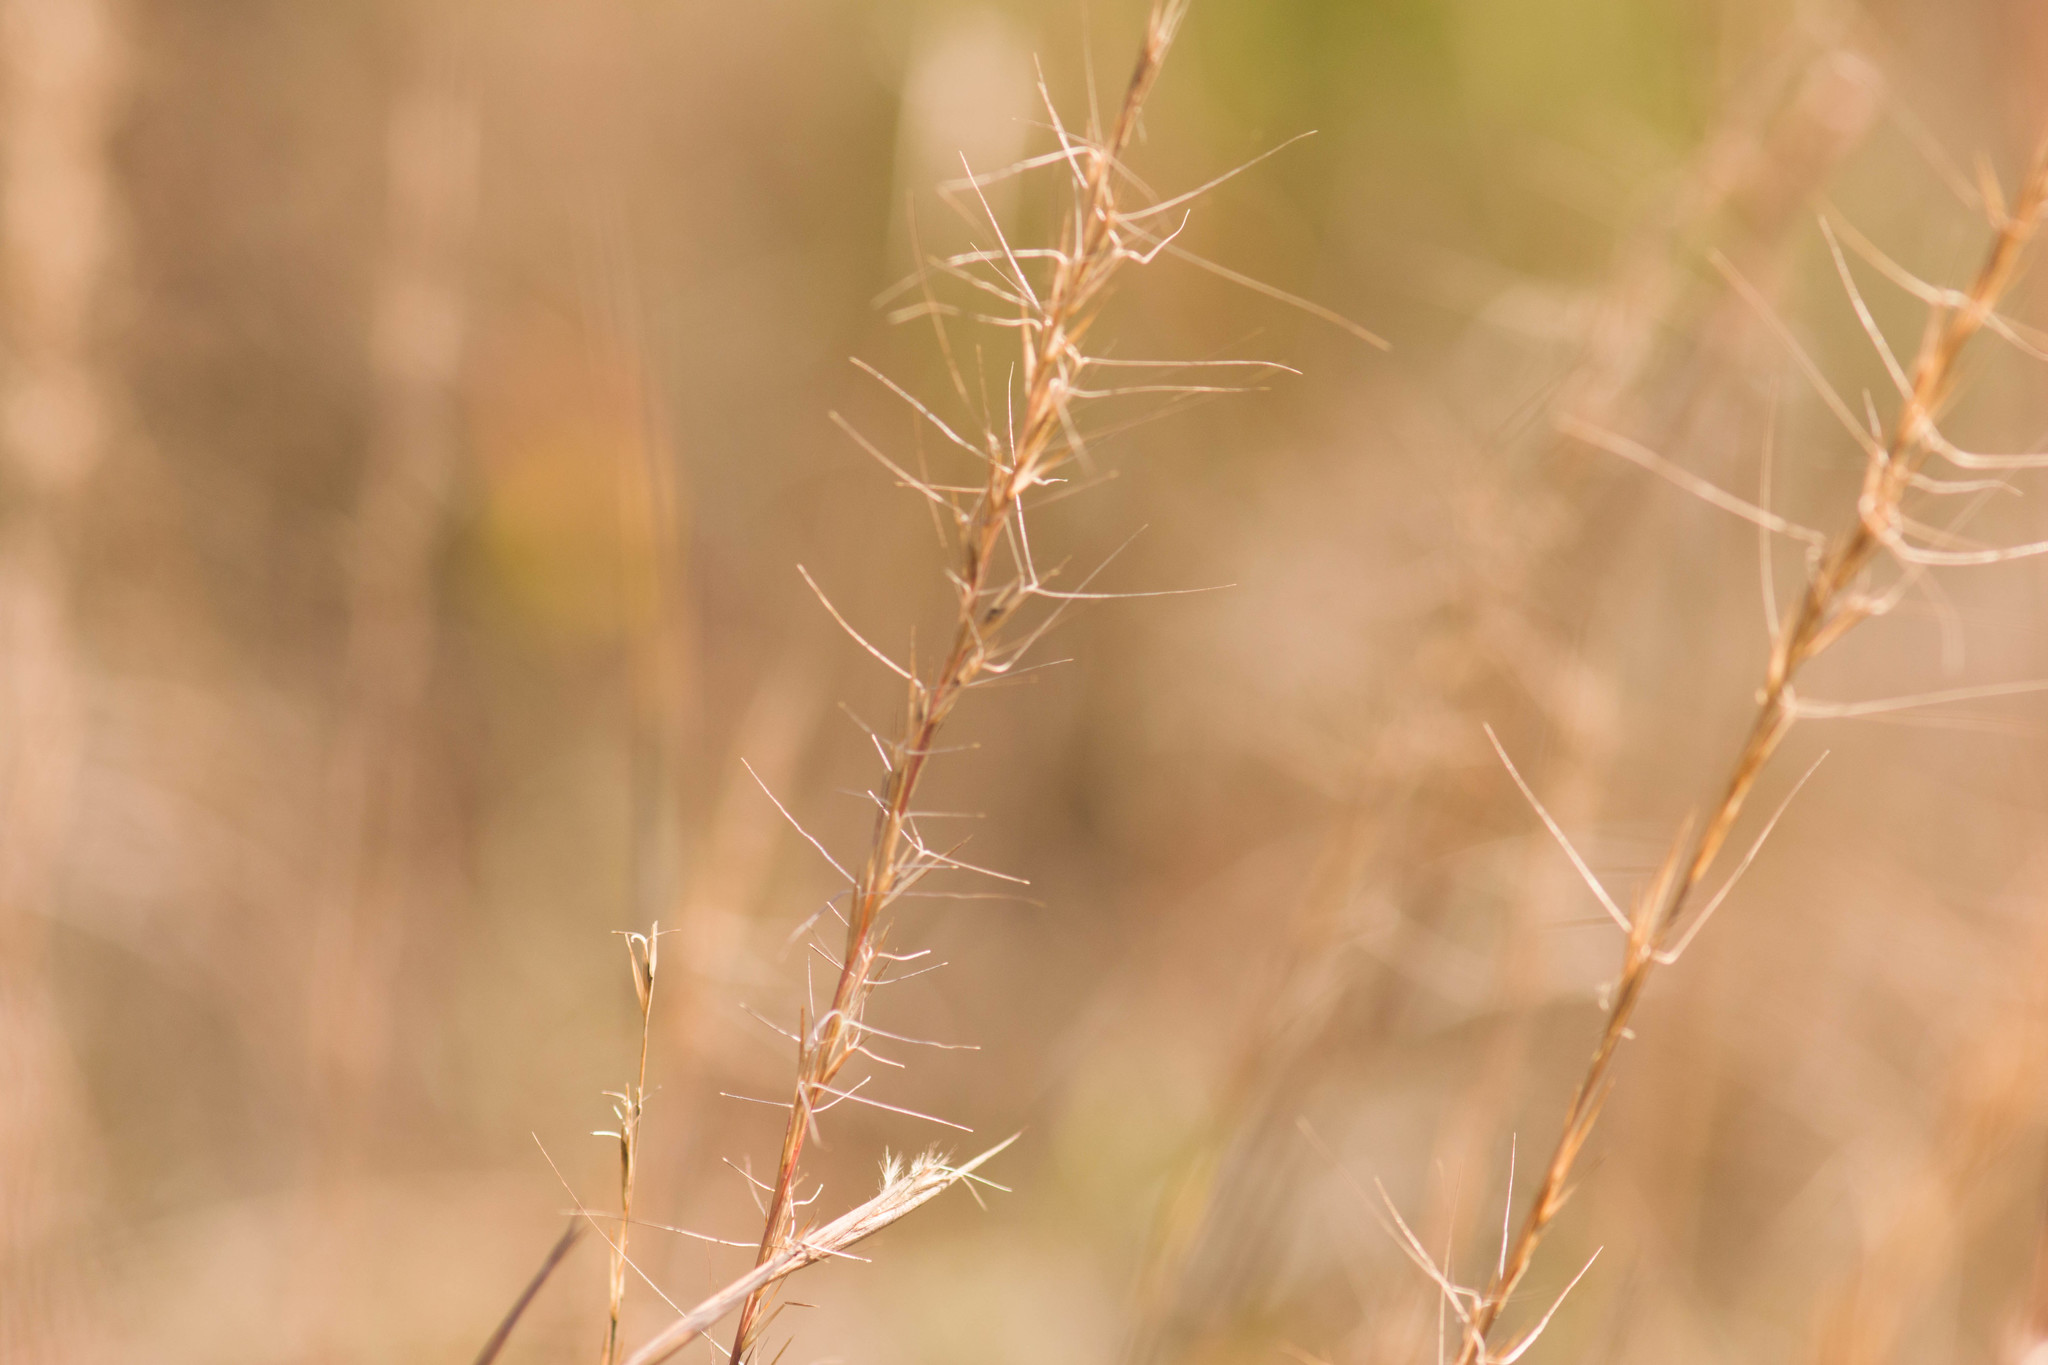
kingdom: Plantae
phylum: Tracheophyta
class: Liliopsida
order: Poales
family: Poaceae
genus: Aristida
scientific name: Aristida purpurea
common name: Purple threeawn
